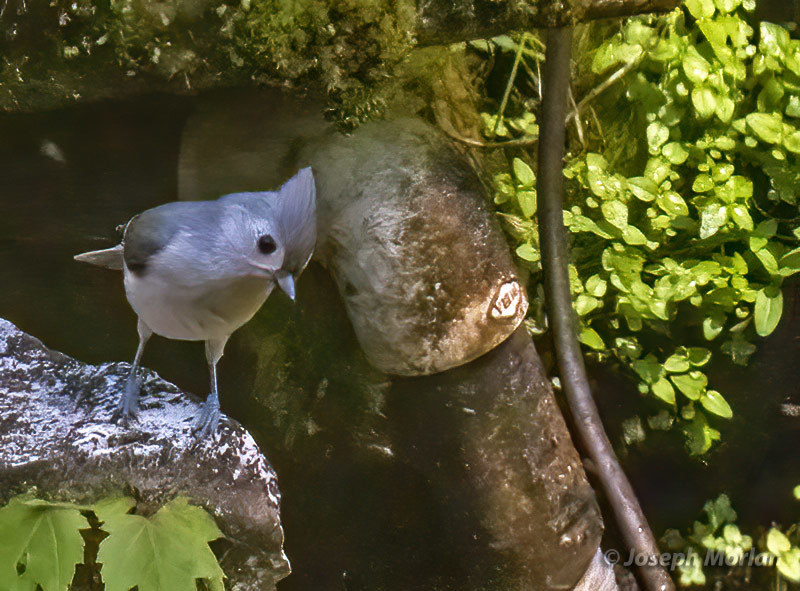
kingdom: Animalia
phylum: Chordata
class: Aves
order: Passeriformes
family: Paridae
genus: Baeolophus
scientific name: Baeolophus bicolor
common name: Tufted titmouse
